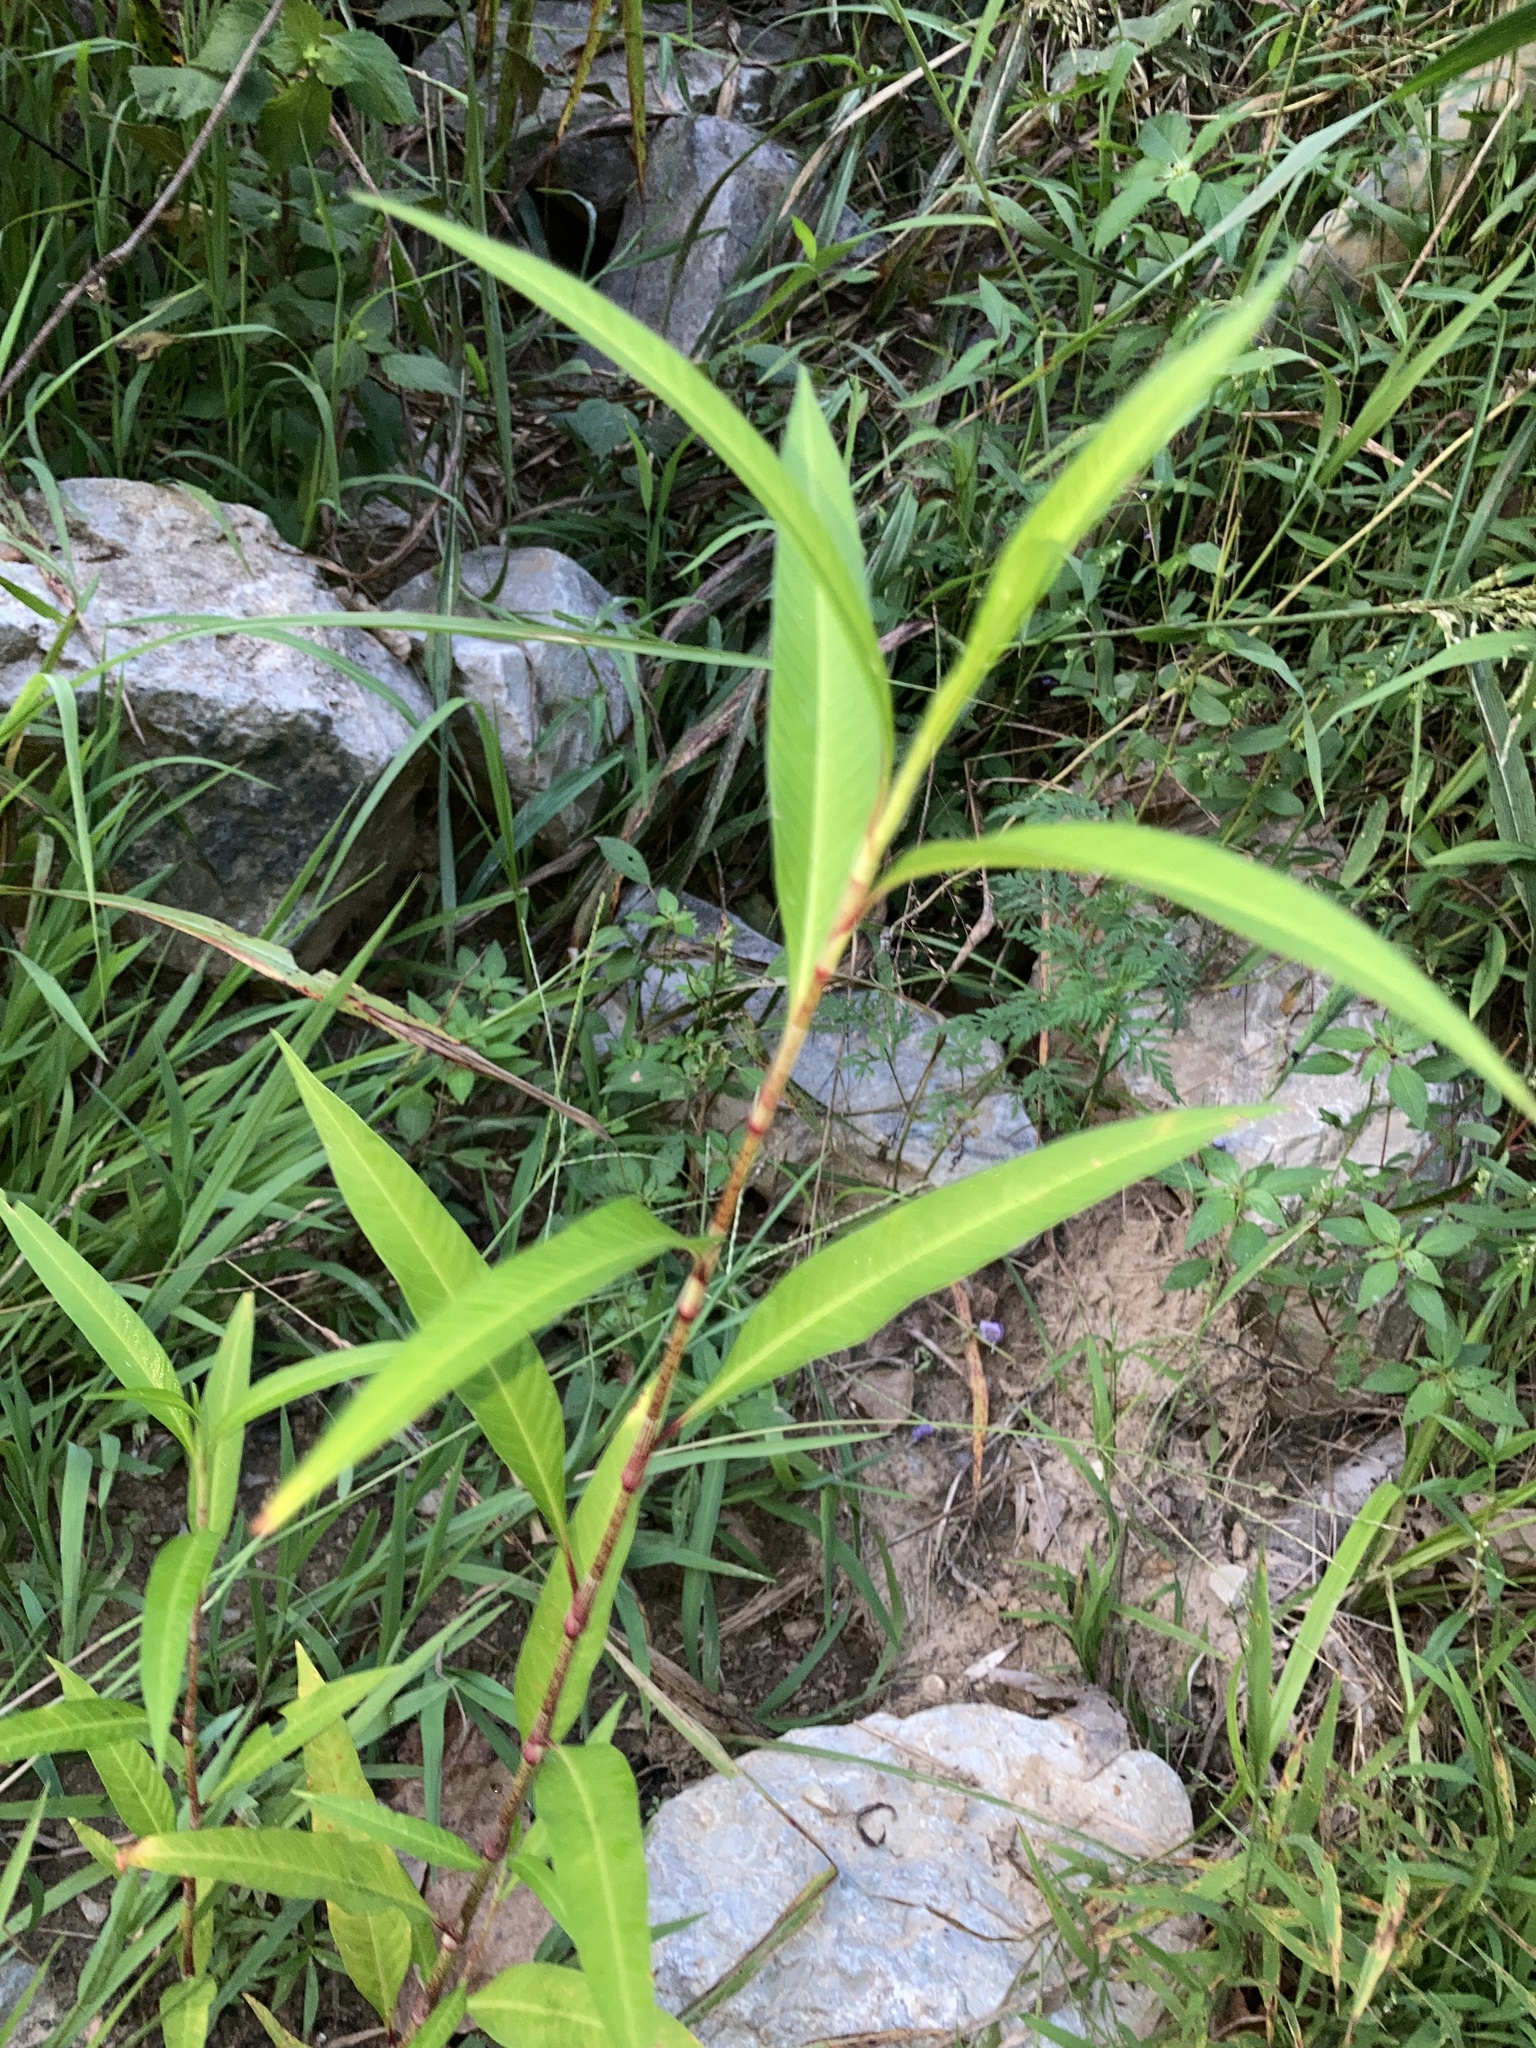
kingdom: Plantae
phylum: Tracheophyta
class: Magnoliopsida
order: Caryophyllales
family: Polygonaceae
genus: Persicaria
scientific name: Persicaria lapathifolia
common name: Curlytop knotweed
